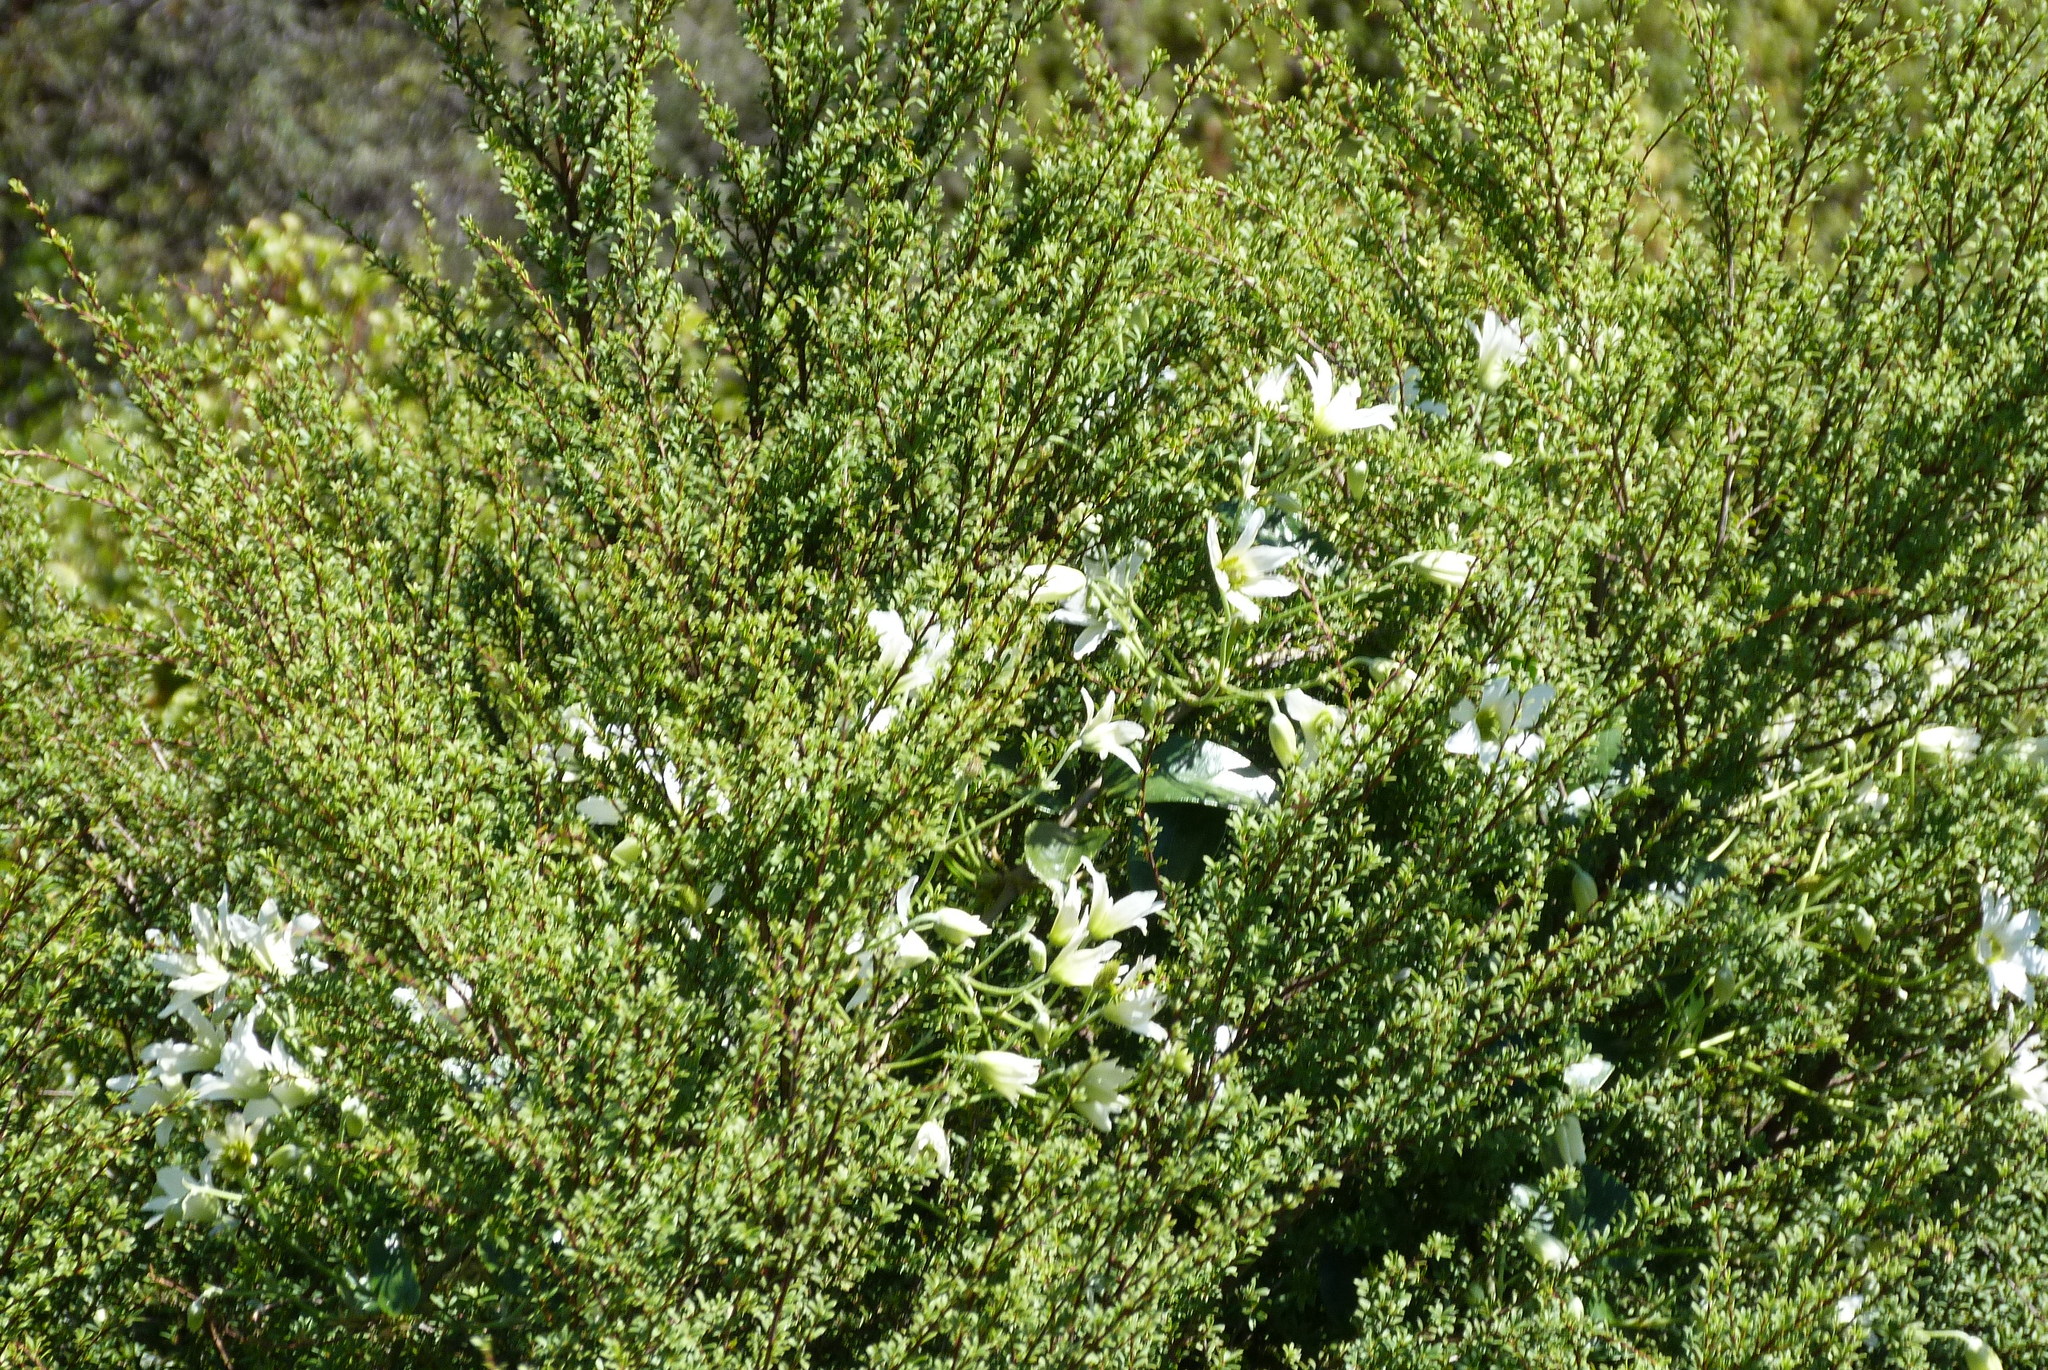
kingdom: Plantae
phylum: Tracheophyta
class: Magnoliopsida
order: Ranunculales
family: Ranunculaceae
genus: Clematis
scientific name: Clematis paniculata
